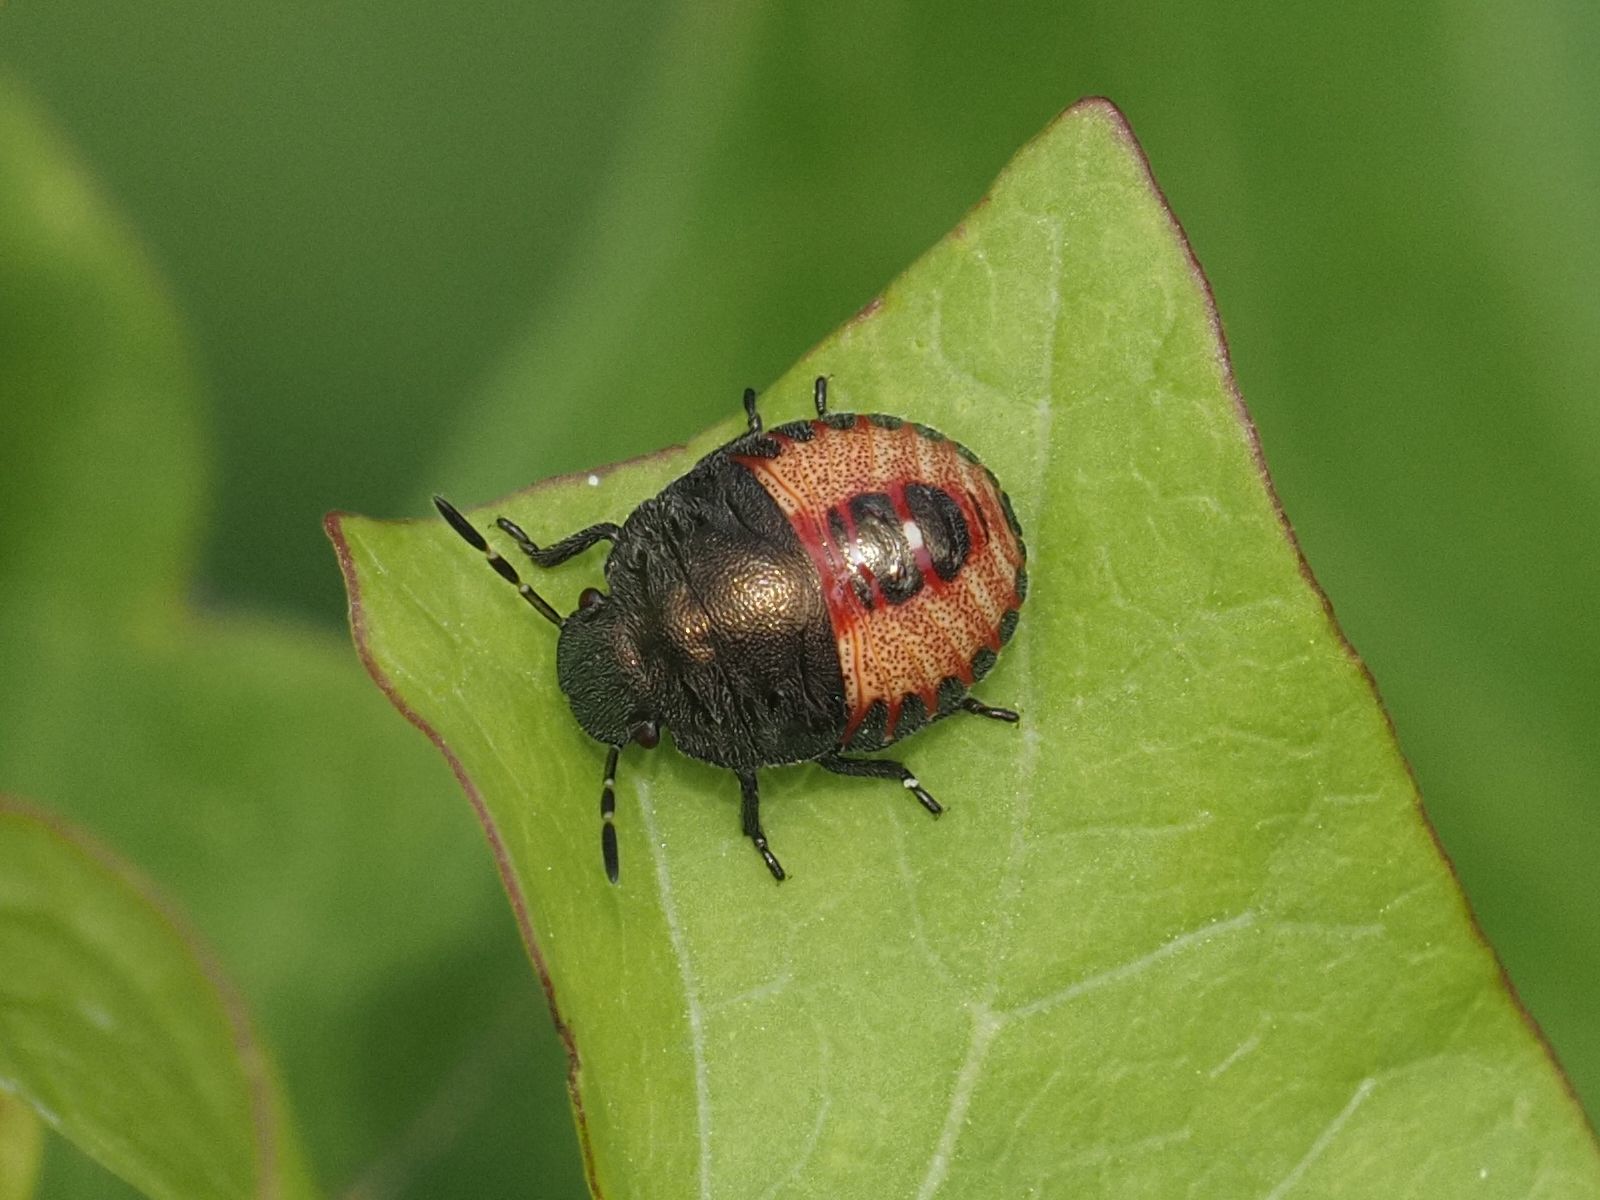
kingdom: Animalia
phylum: Arthropoda
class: Insecta
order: Hemiptera
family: Pentatomidae
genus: Holcostethus
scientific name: Holcostethus strictus
